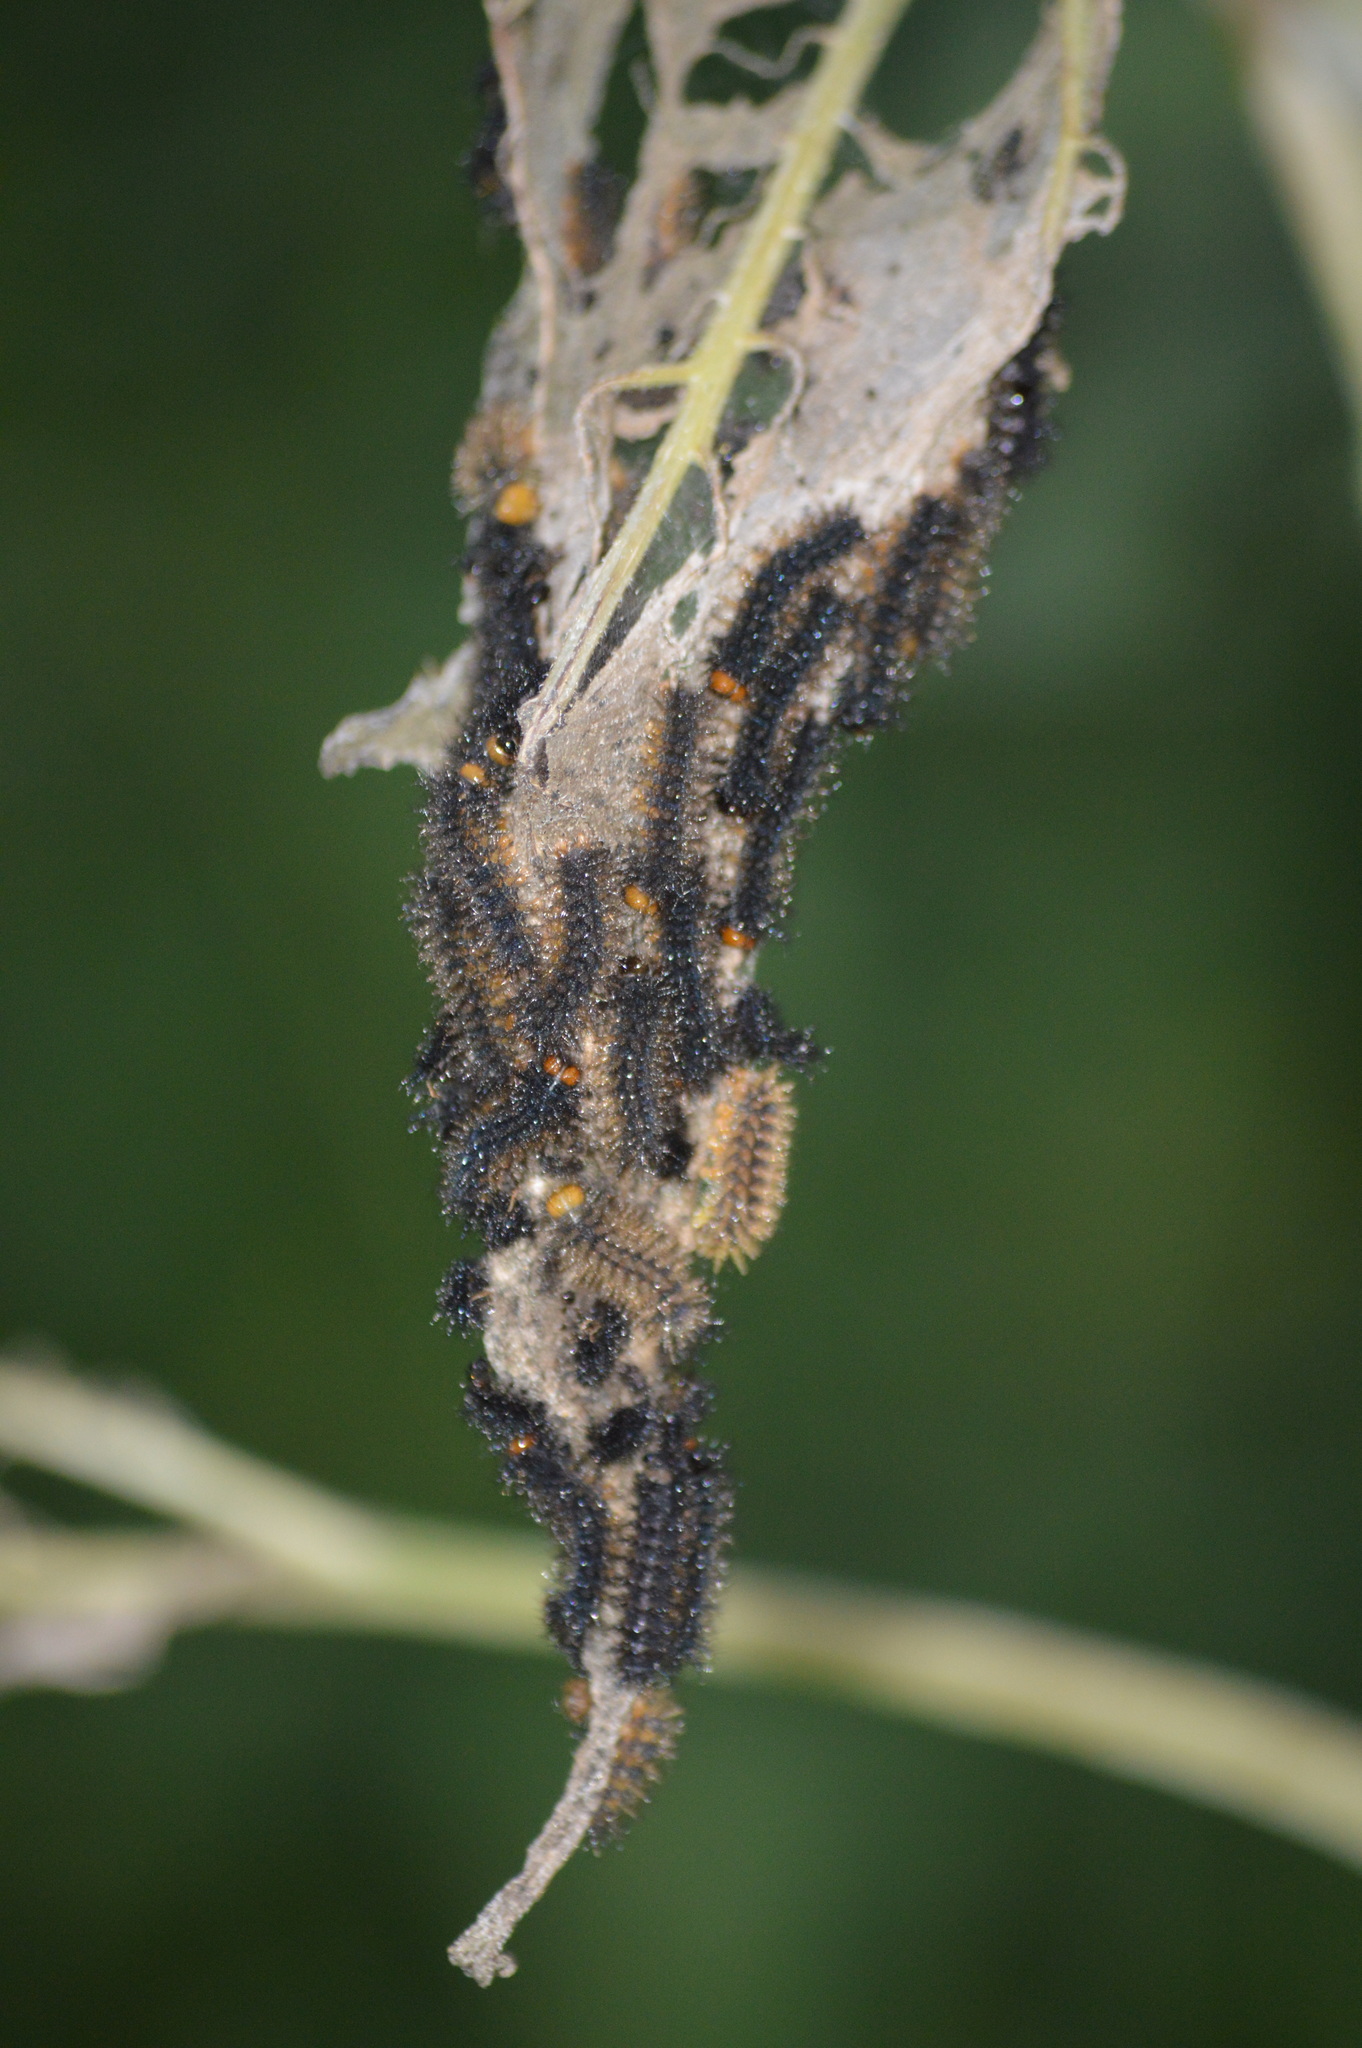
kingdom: Animalia
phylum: Arthropoda
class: Insecta
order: Lepidoptera
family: Nymphalidae
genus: Chlosyne
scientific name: Chlosyne lacinia
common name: Bordered patch
